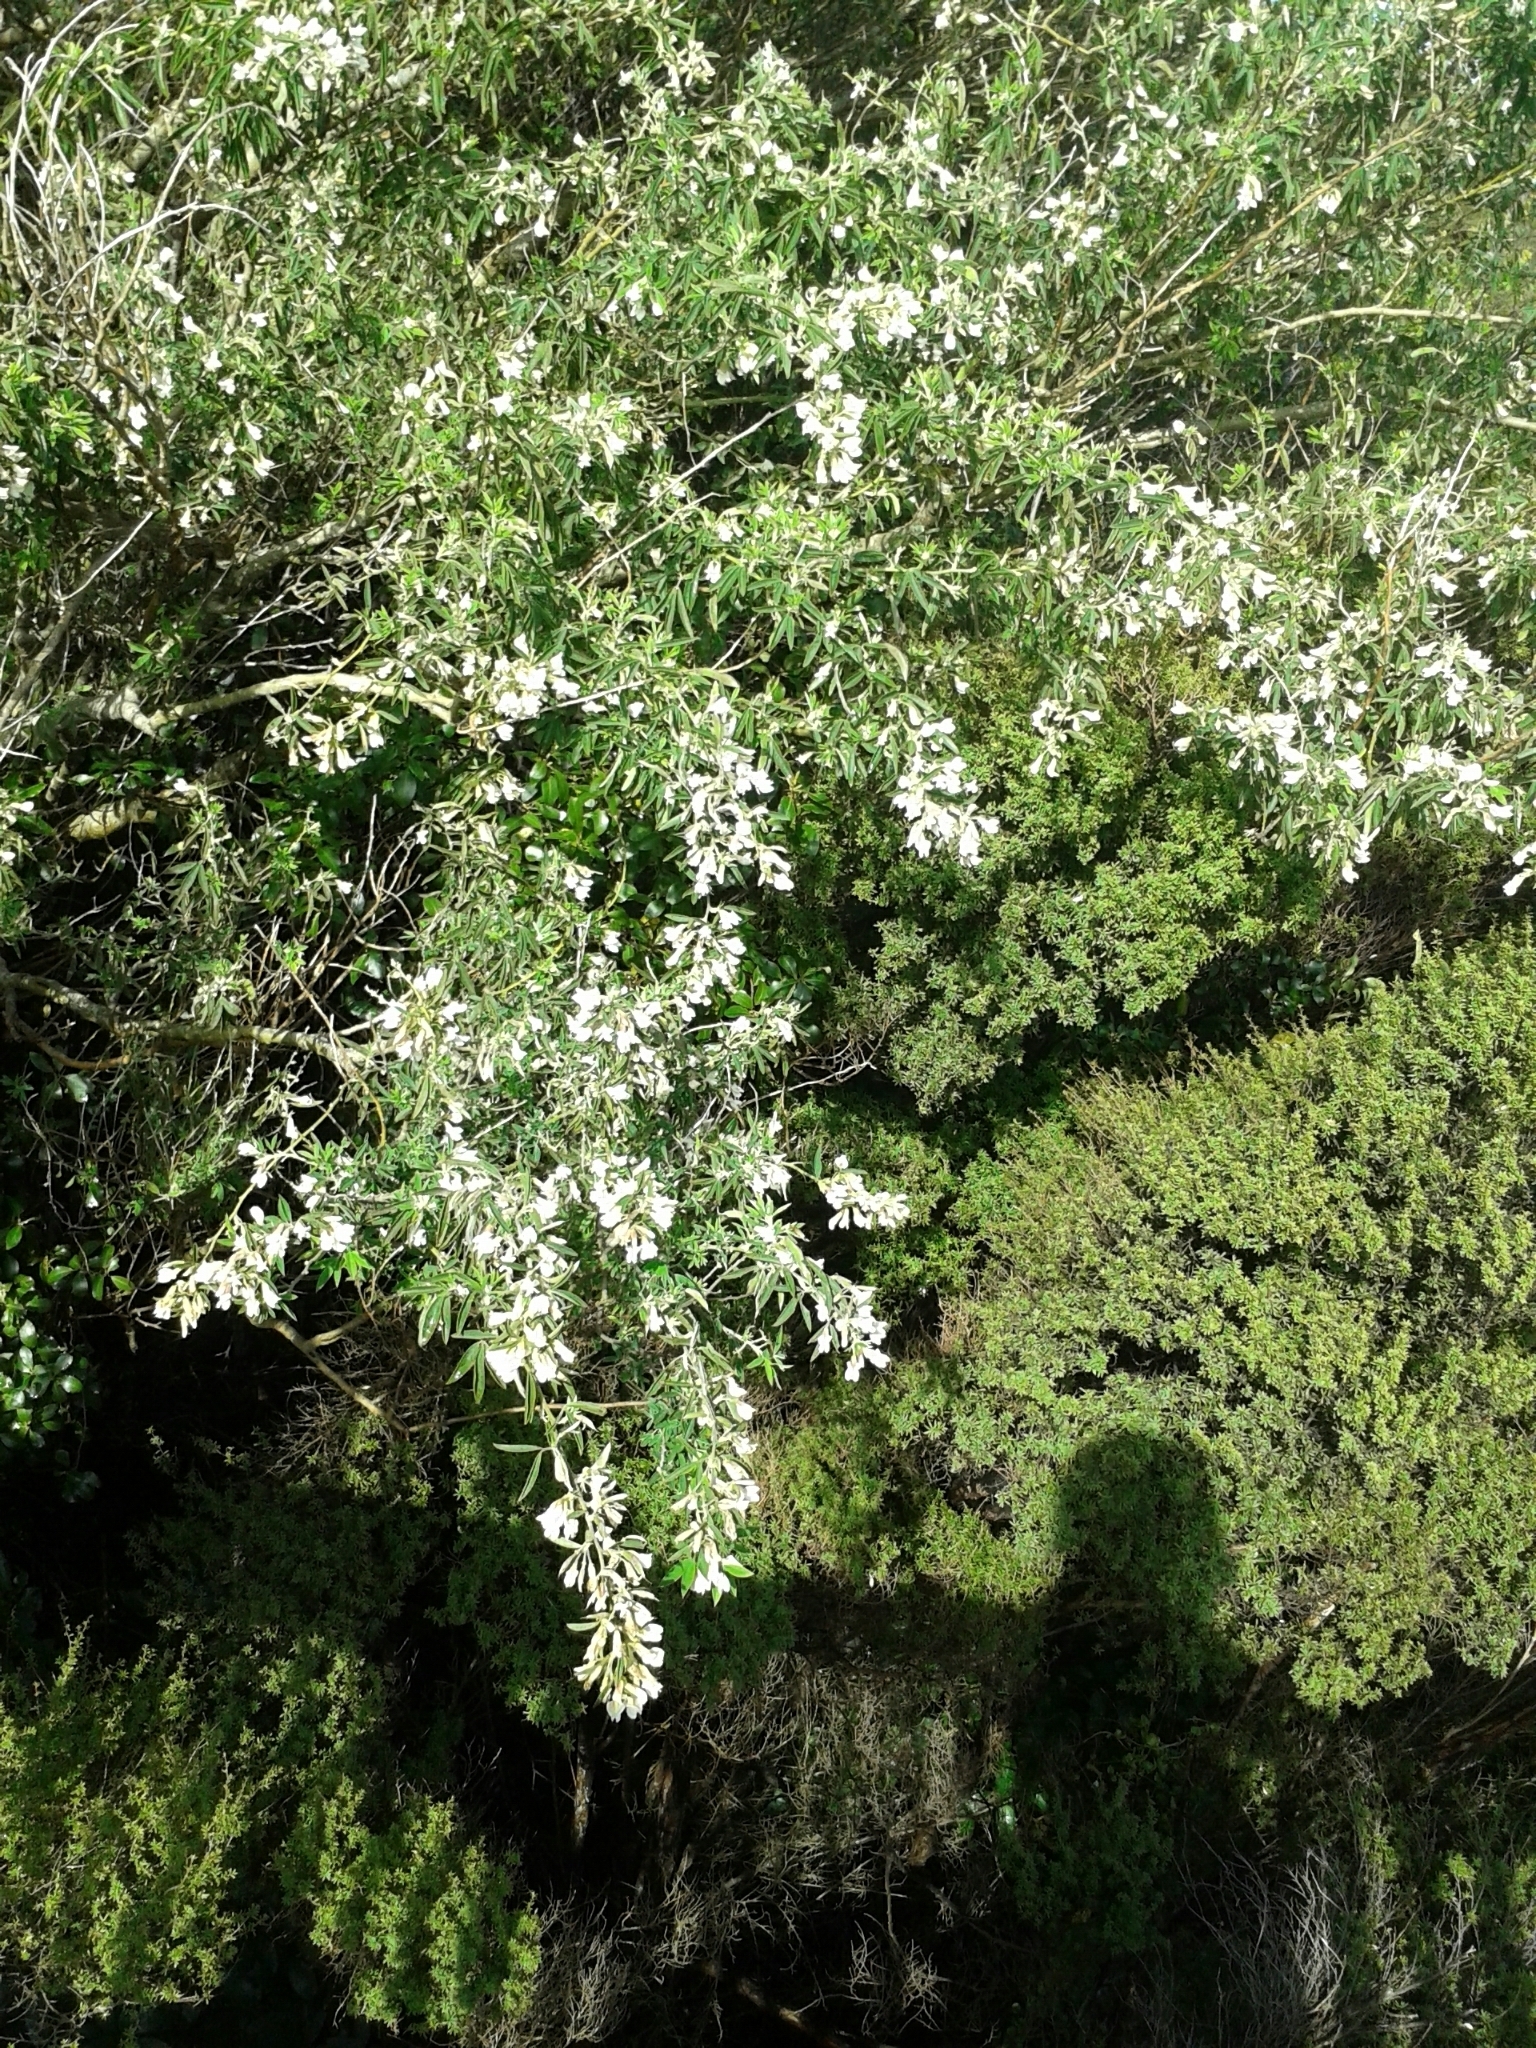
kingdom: Plantae
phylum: Tracheophyta
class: Magnoliopsida
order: Fabales
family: Fabaceae
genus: Chamaecytisus
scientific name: Chamaecytisus prolifer
